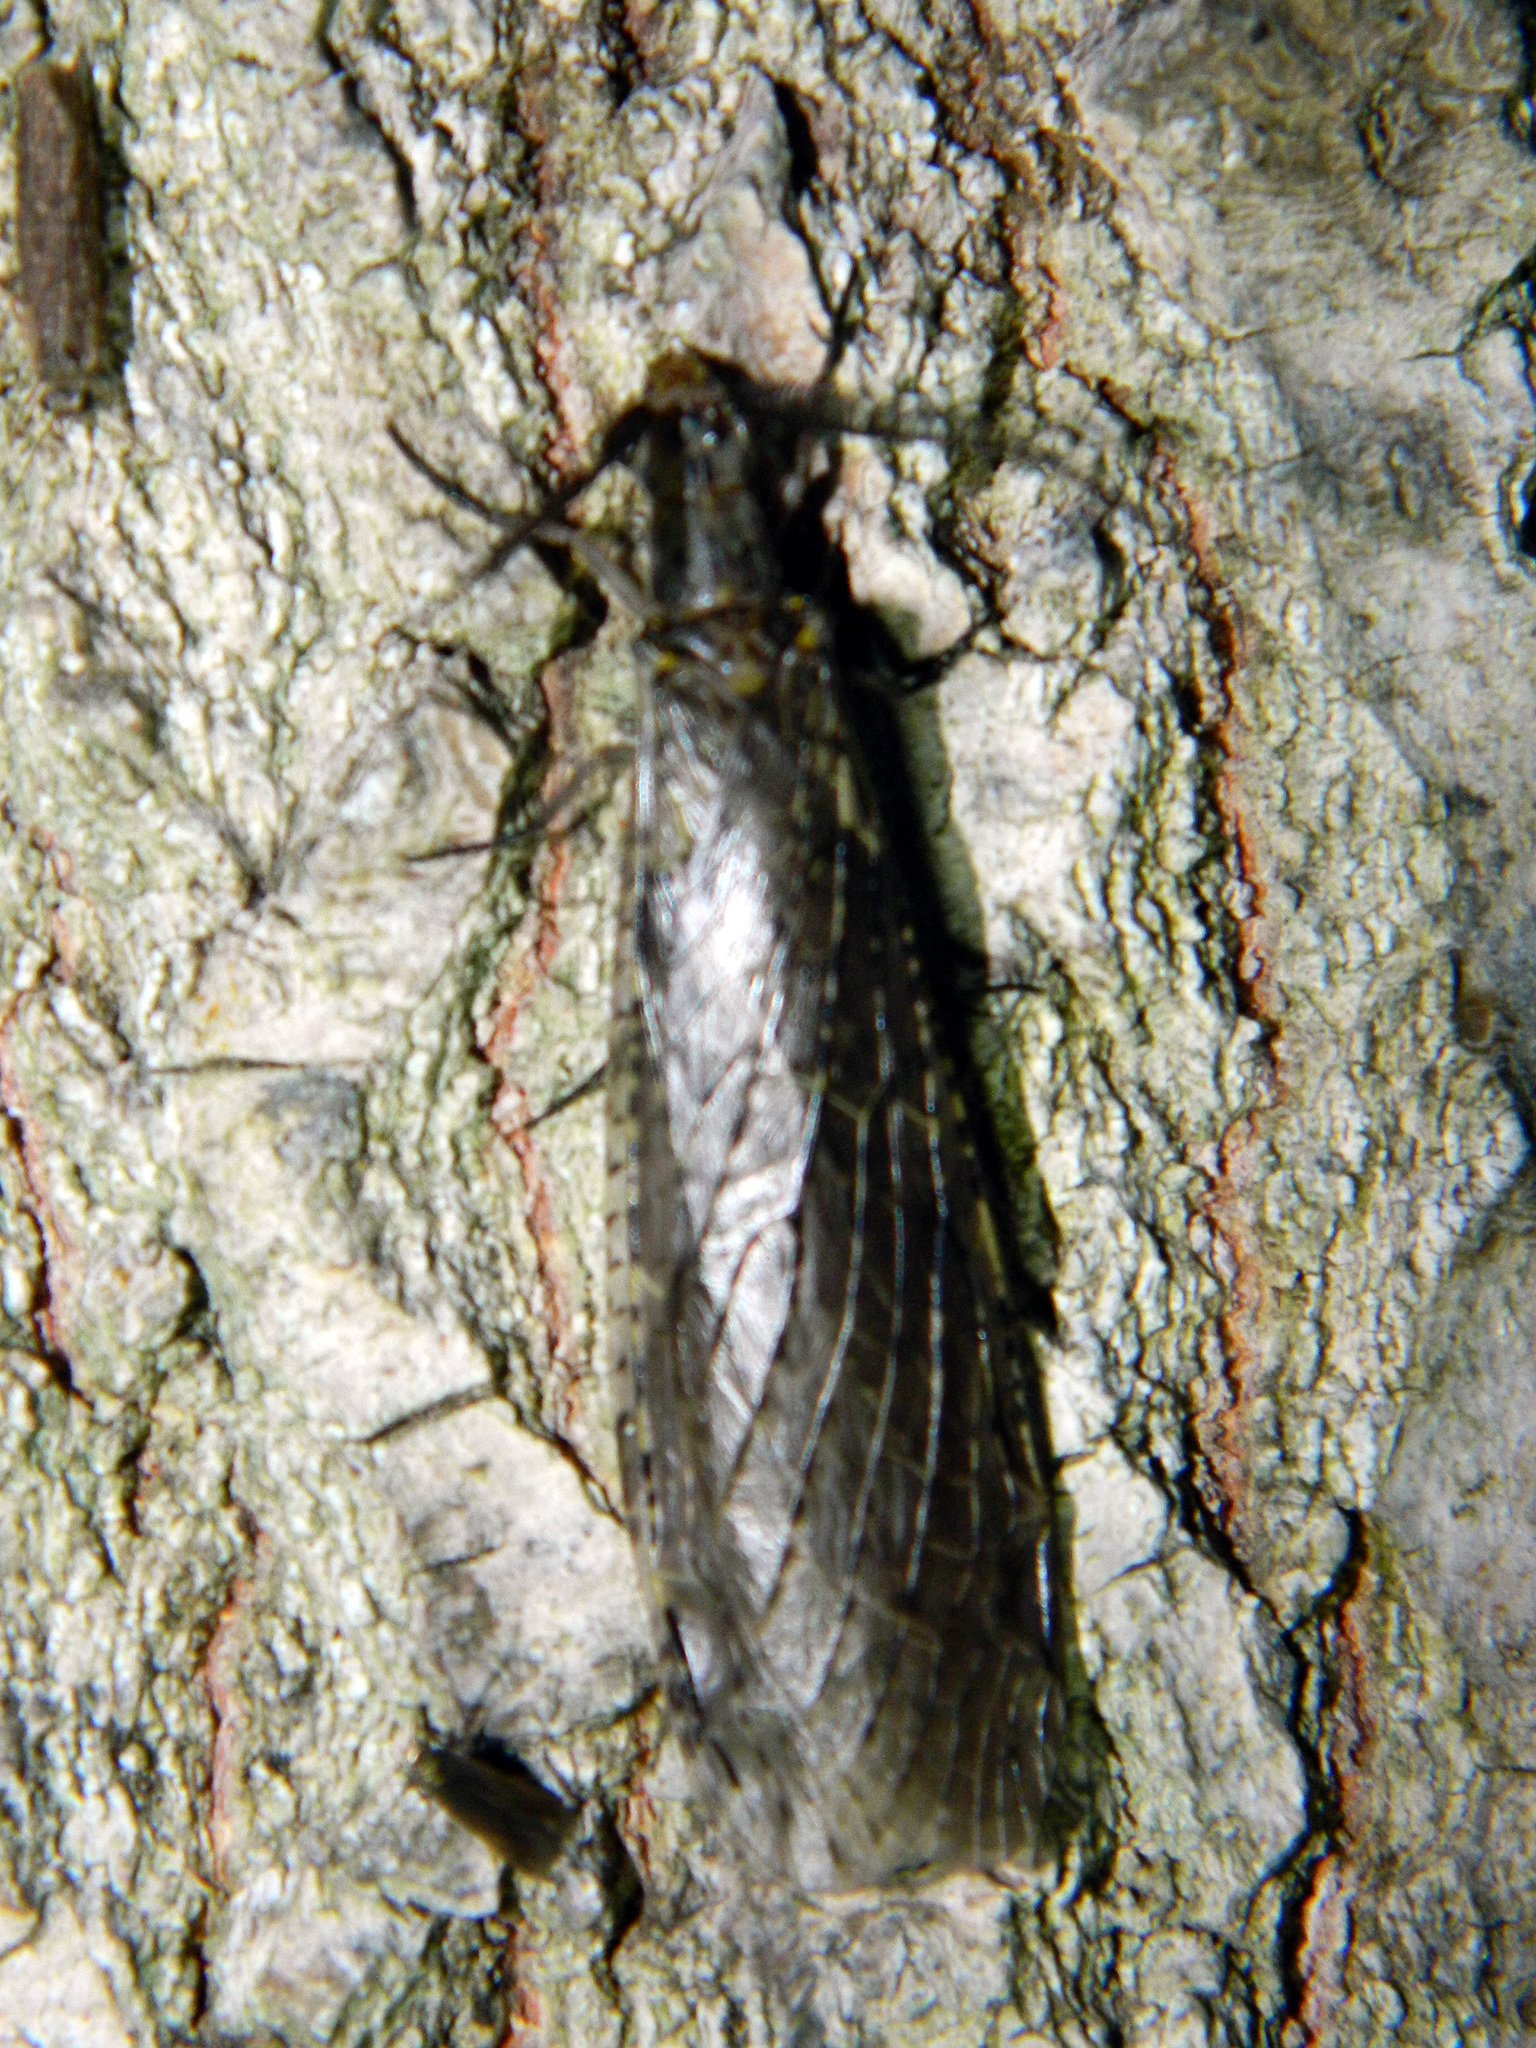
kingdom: Animalia
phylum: Arthropoda
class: Insecta
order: Megaloptera
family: Corydalidae
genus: Chauliodes
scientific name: Chauliodes rastricornis
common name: Spring fishfly
